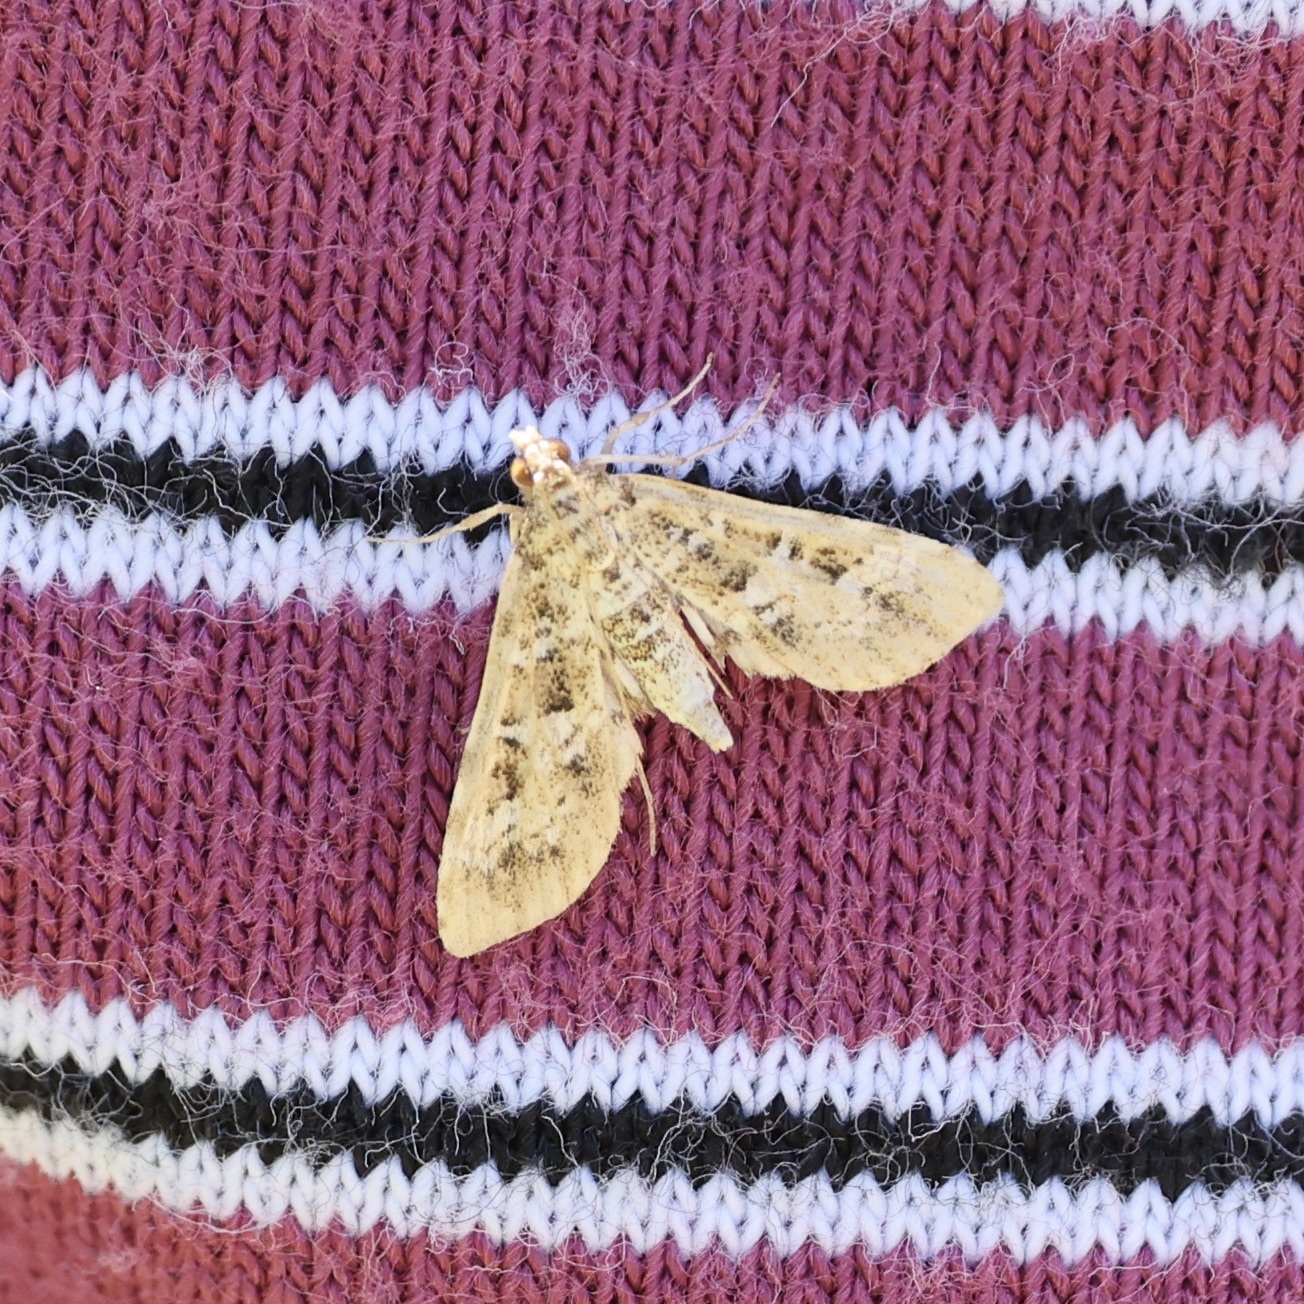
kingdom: Animalia
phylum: Arthropoda
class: Insecta
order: Lepidoptera
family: Crambidae
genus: Samea
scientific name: Samea multiplicalis
